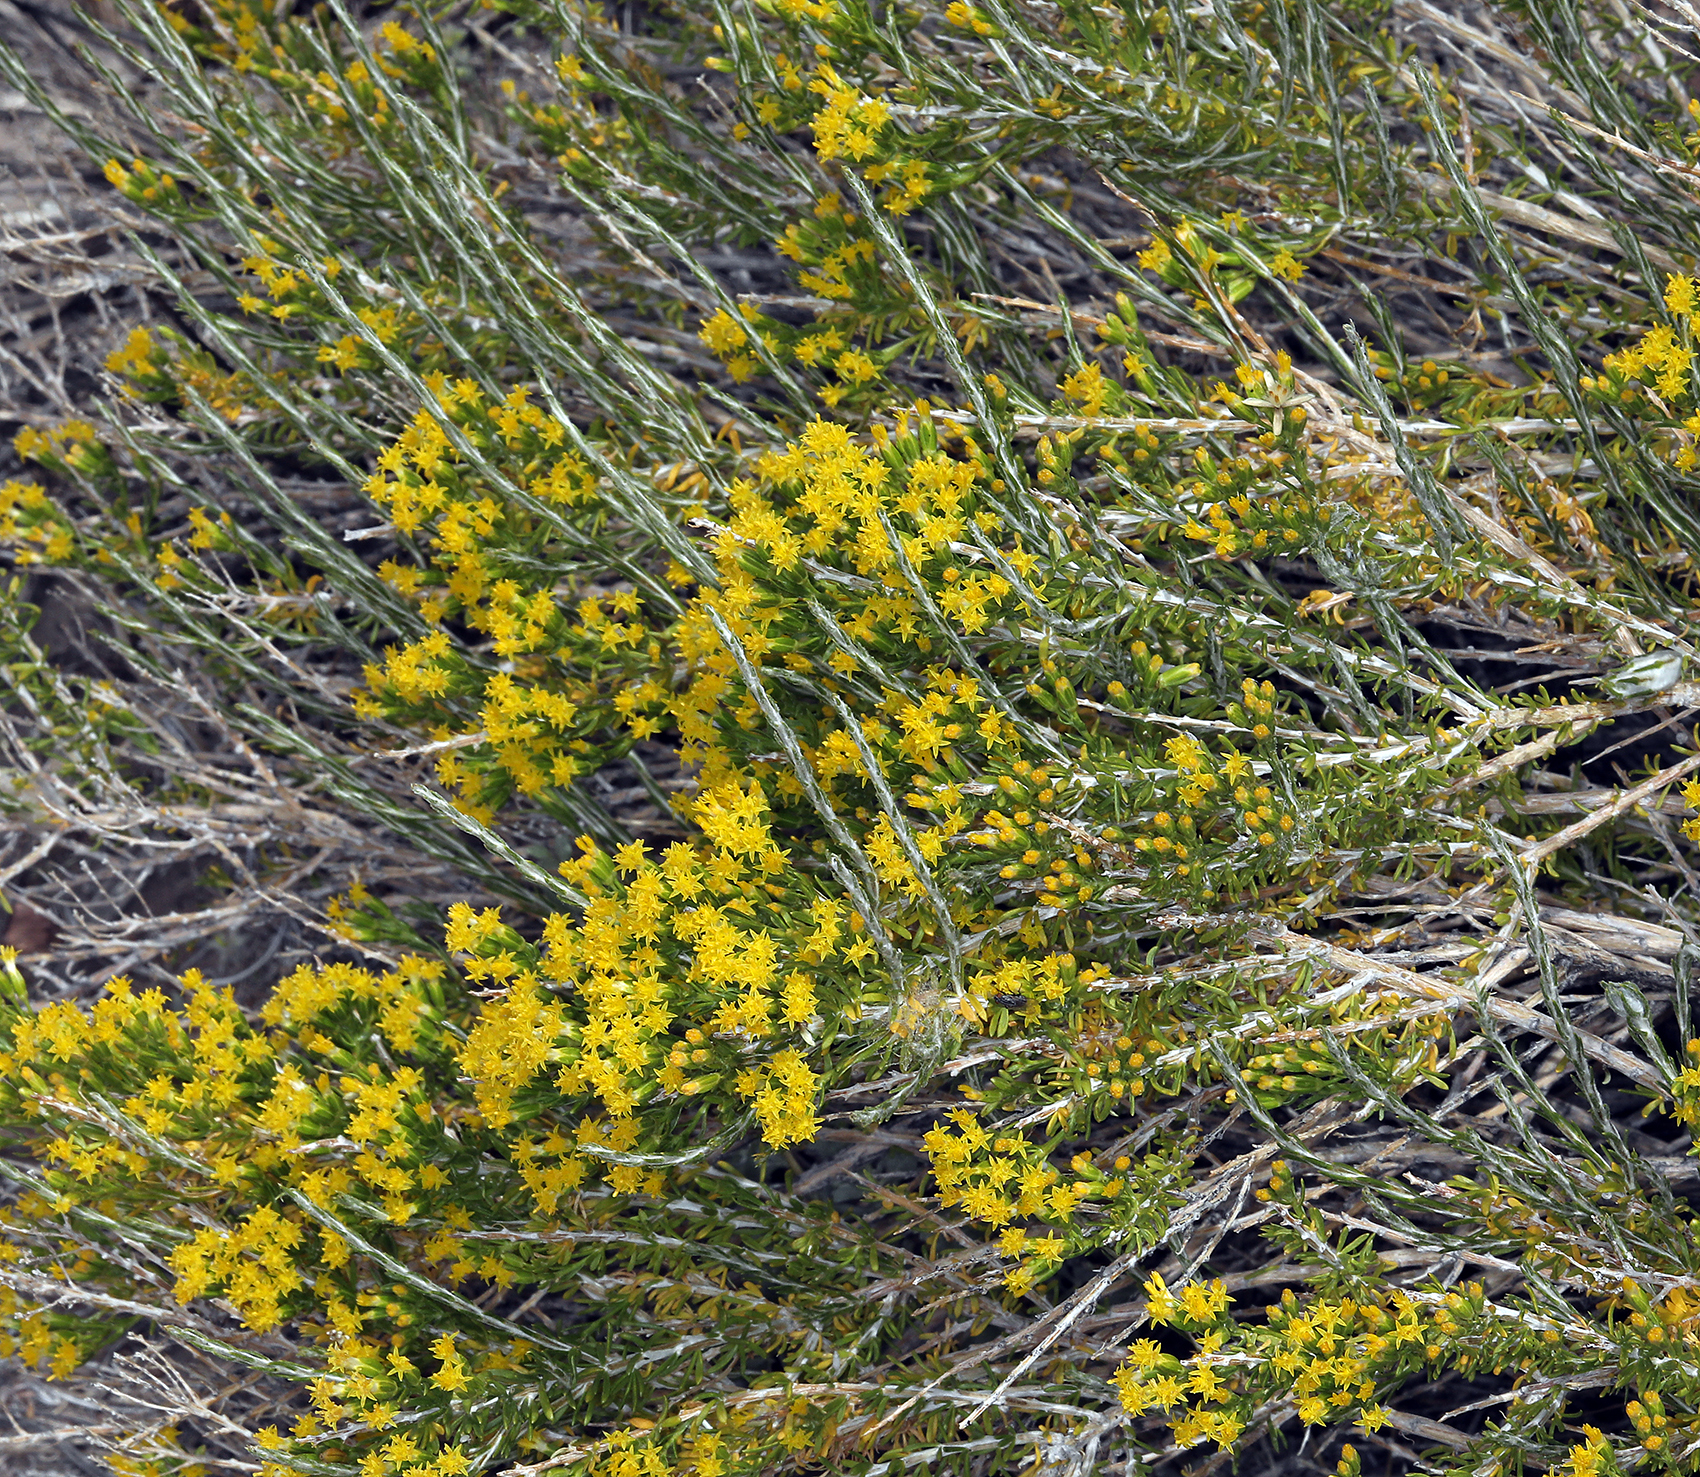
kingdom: Plantae
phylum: Tracheophyta
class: Magnoliopsida
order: Asterales
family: Asteraceae
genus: Tetradymia
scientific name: Tetradymia glabrata
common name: Smooth tetradymia
